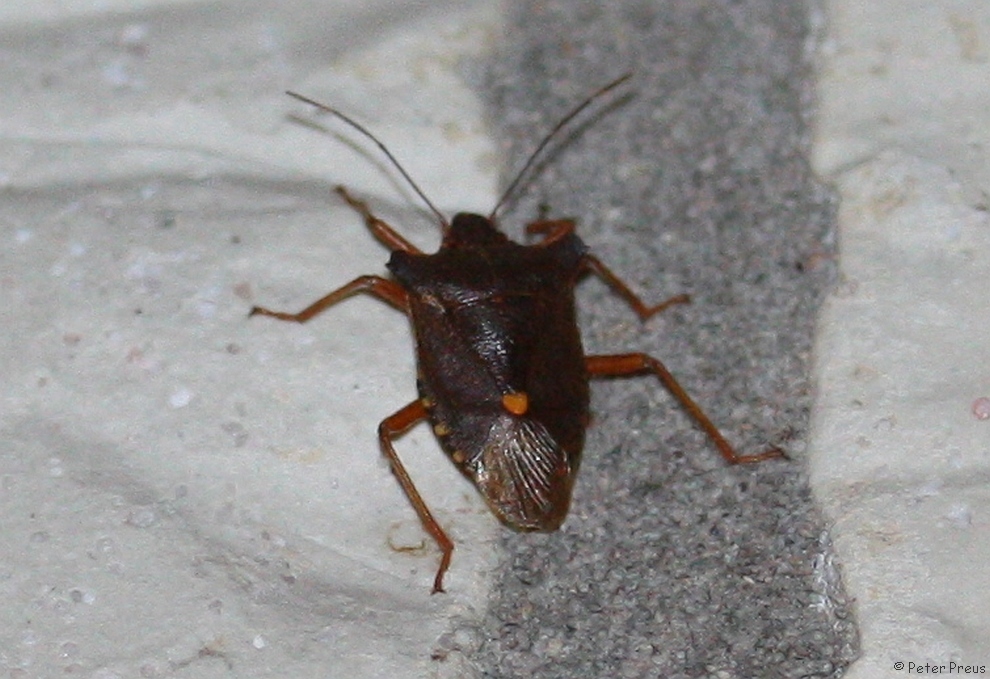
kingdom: Animalia
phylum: Arthropoda
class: Insecta
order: Hemiptera
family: Pentatomidae
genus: Pentatoma
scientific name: Pentatoma rufipes
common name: Forest bug
